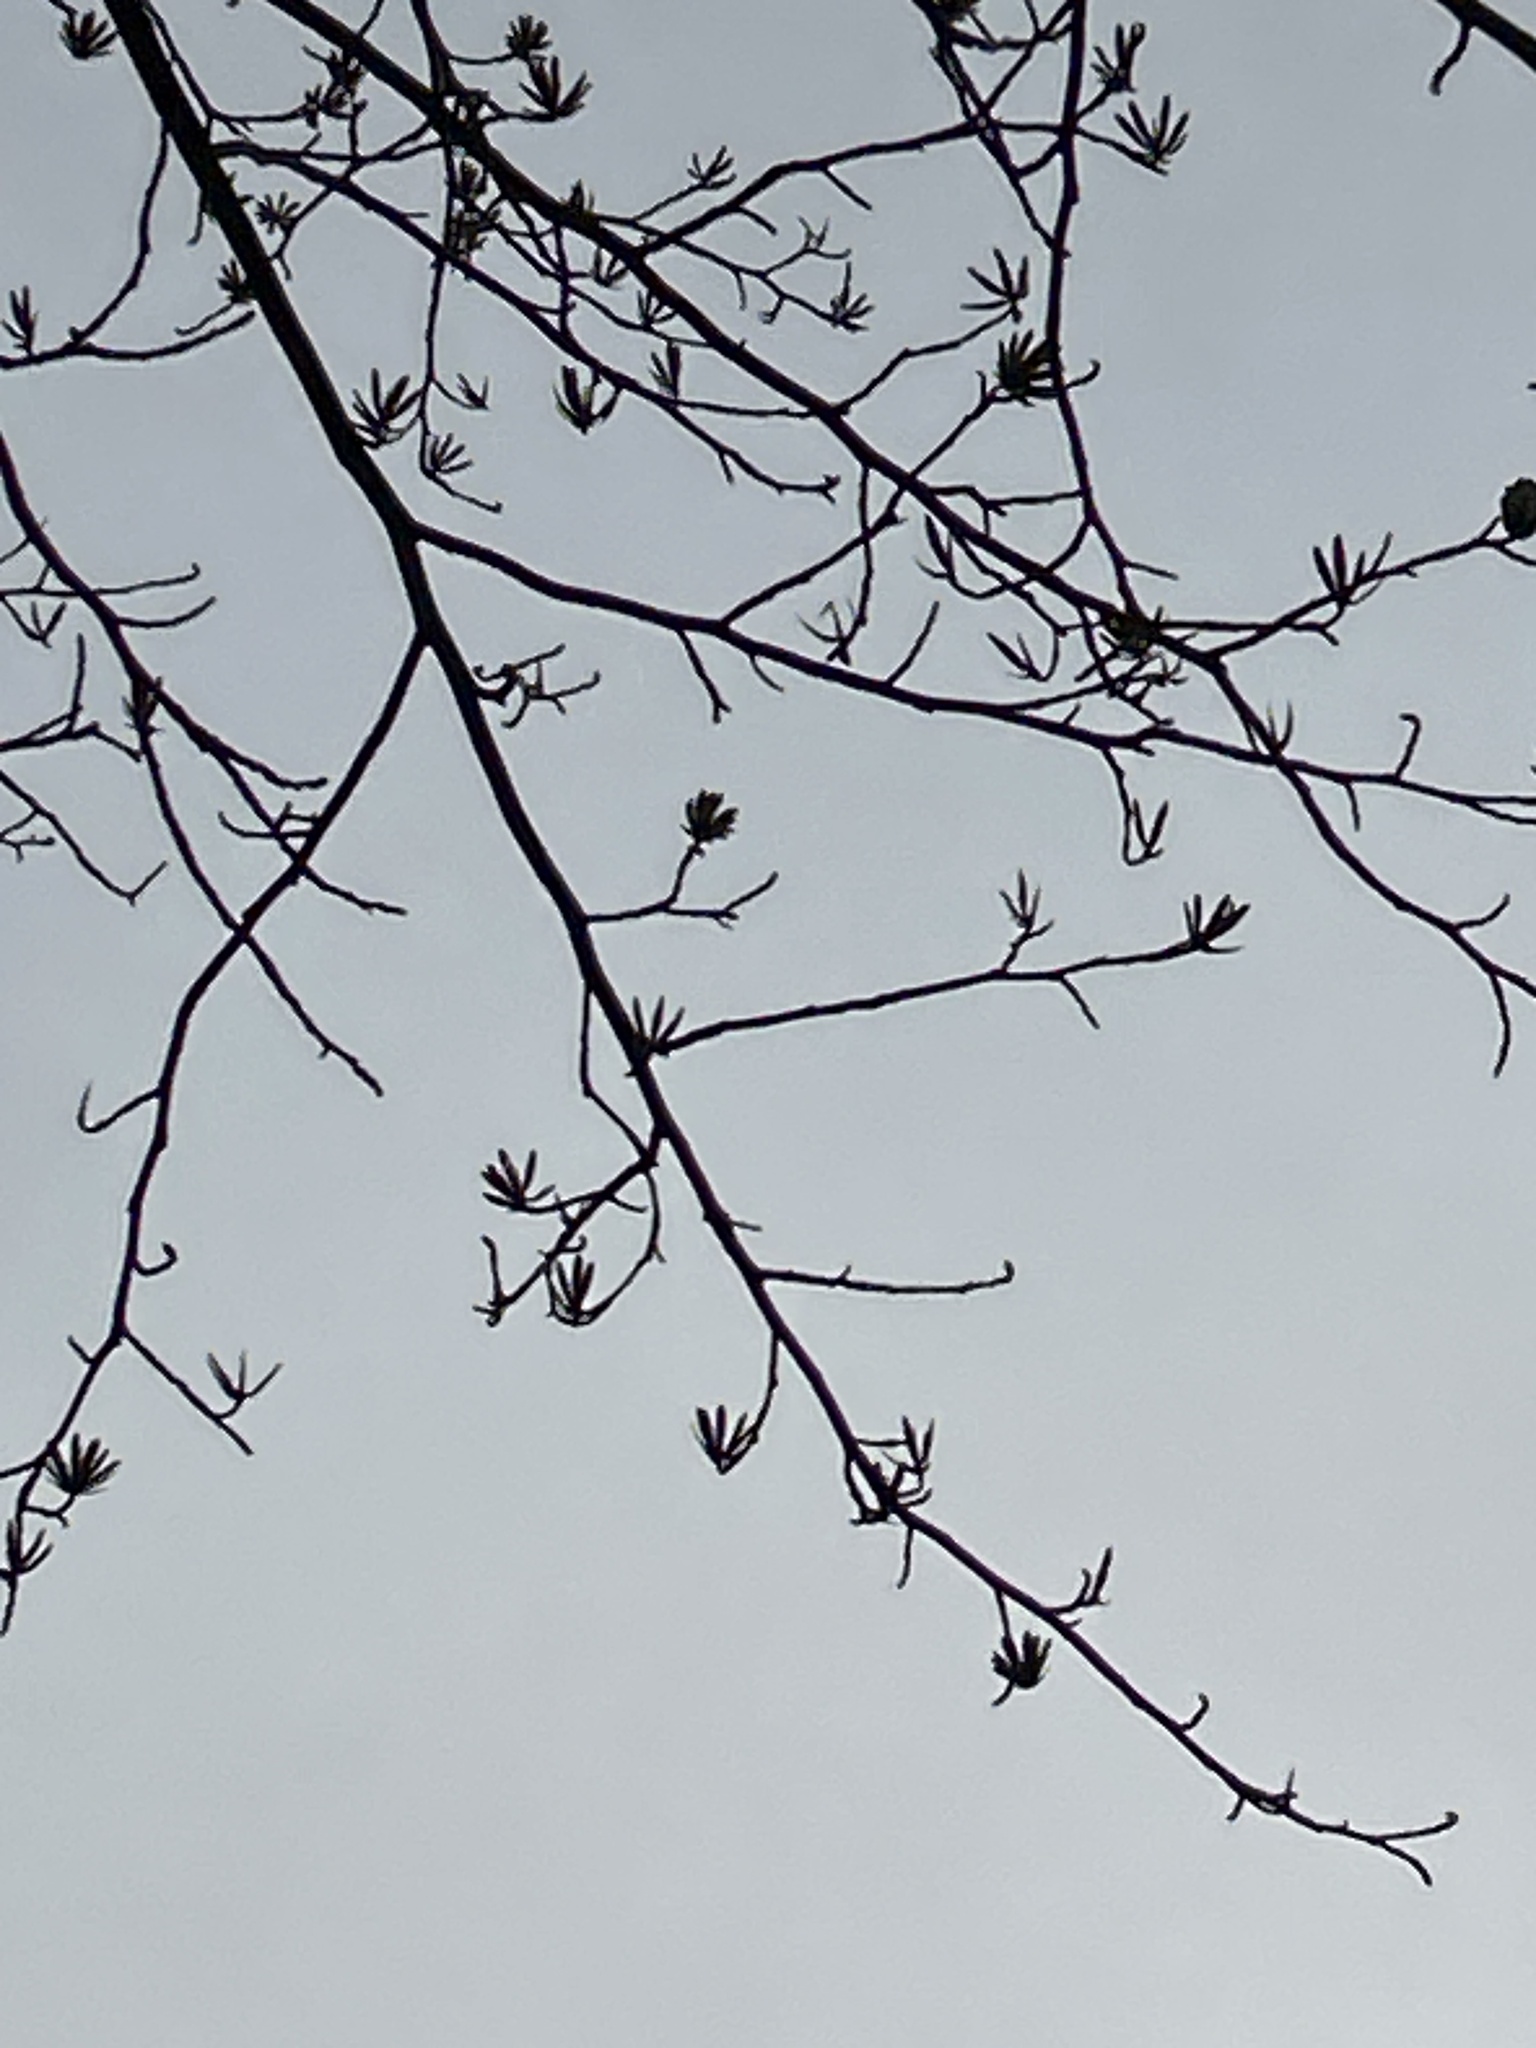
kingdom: Plantae
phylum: Tracheophyta
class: Magnoliopsida
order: Magnoliales
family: Magnoliaceae
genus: Liriodendron
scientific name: Liriodendron tulipifera
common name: Tulip tree
